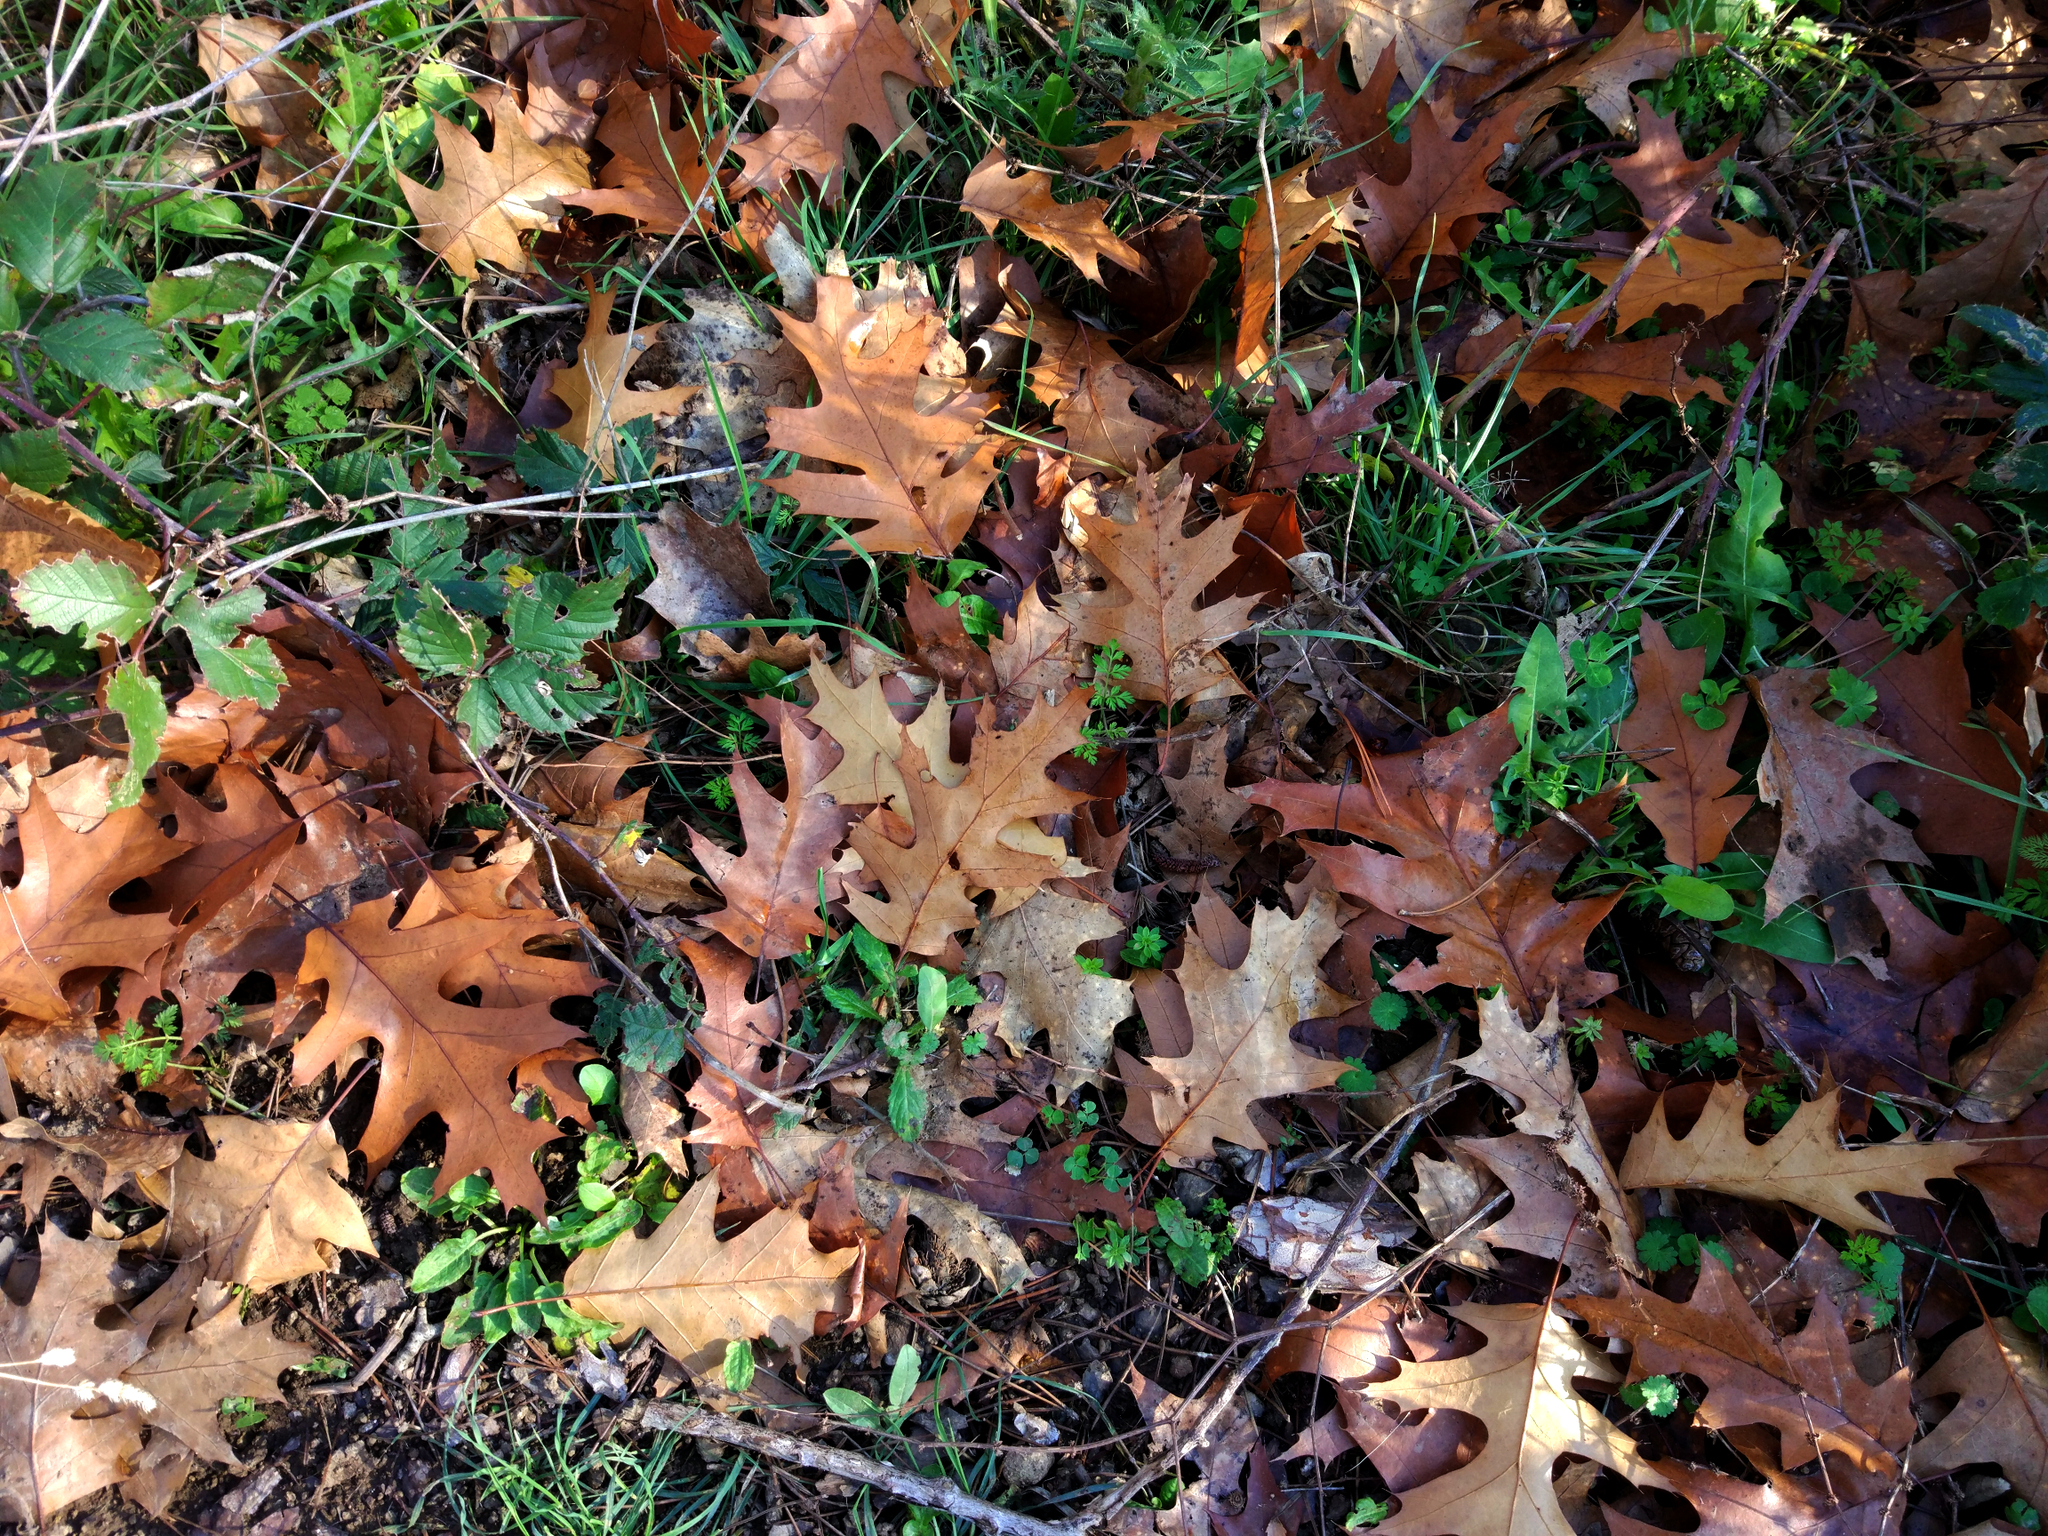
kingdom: Plantae
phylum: Tracheophyta
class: Magnoliopsida
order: Fagales
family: Fagaceae
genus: Quercus
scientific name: Quercus rubra
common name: Red oak
